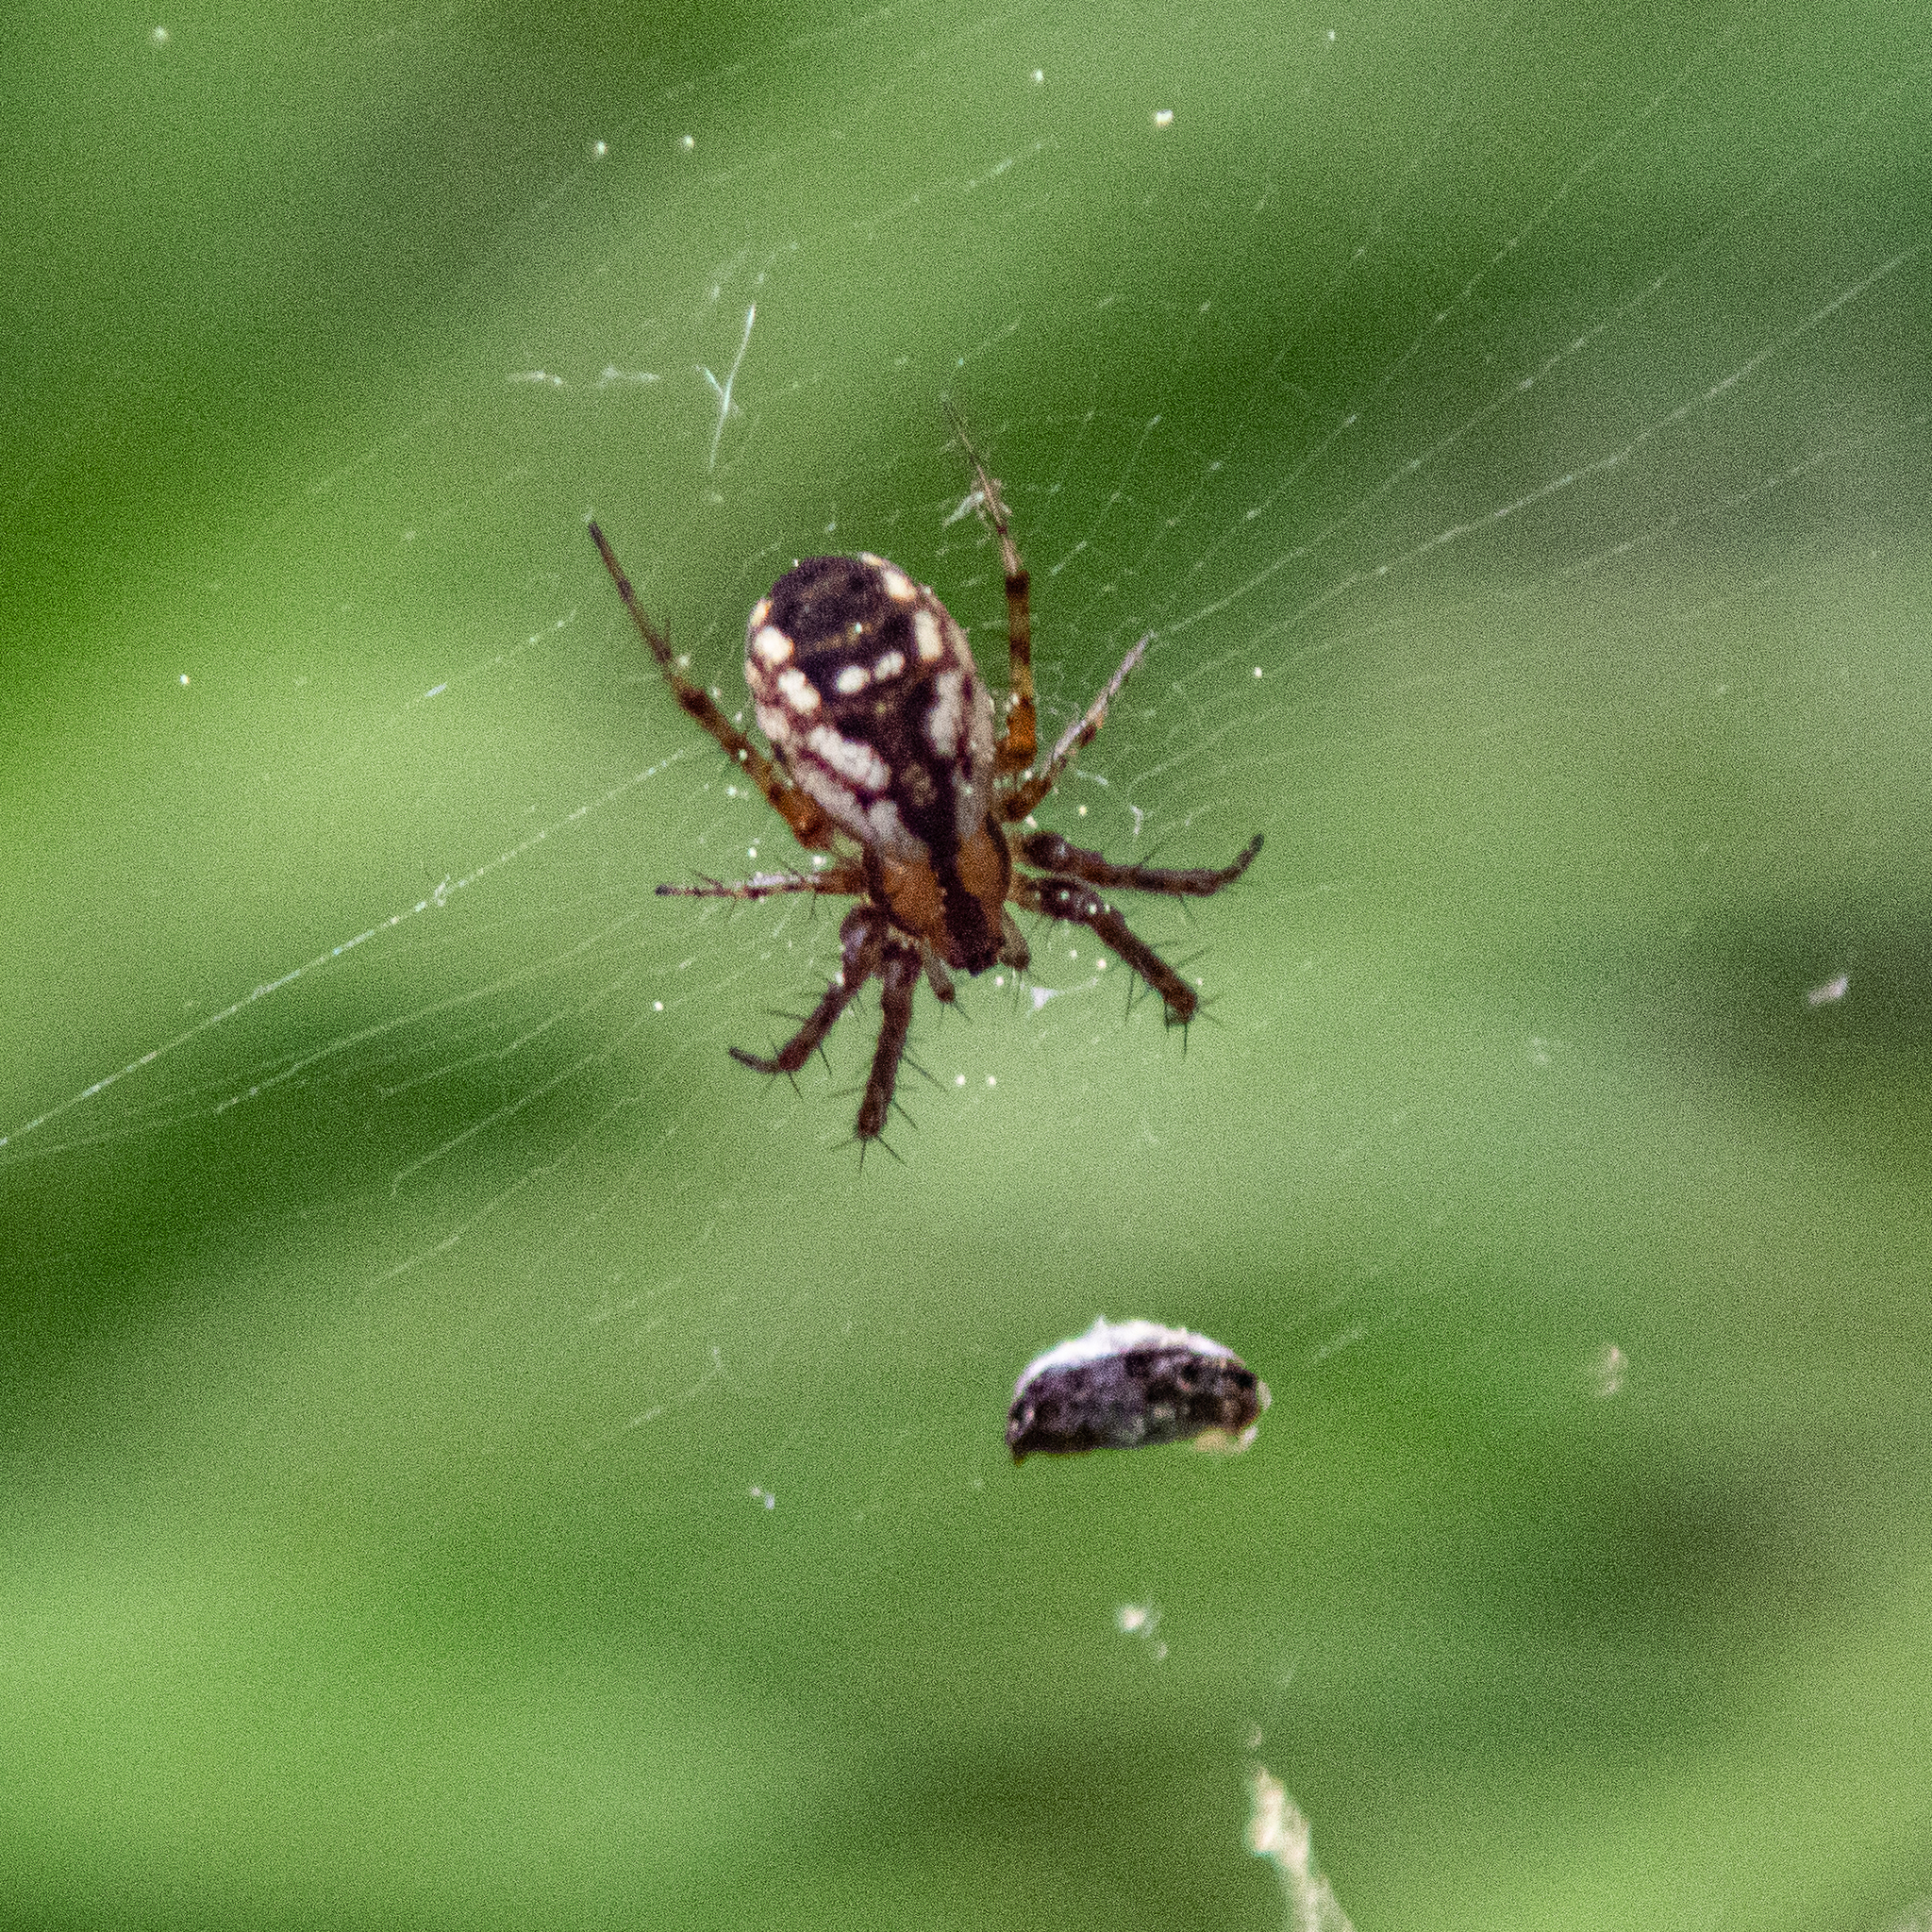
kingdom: Animalia
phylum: Arthropoda
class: Arachnida
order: Araneae
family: Araneidae
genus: Mangora
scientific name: Mangora placida
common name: Tuft-legged orbweaver
